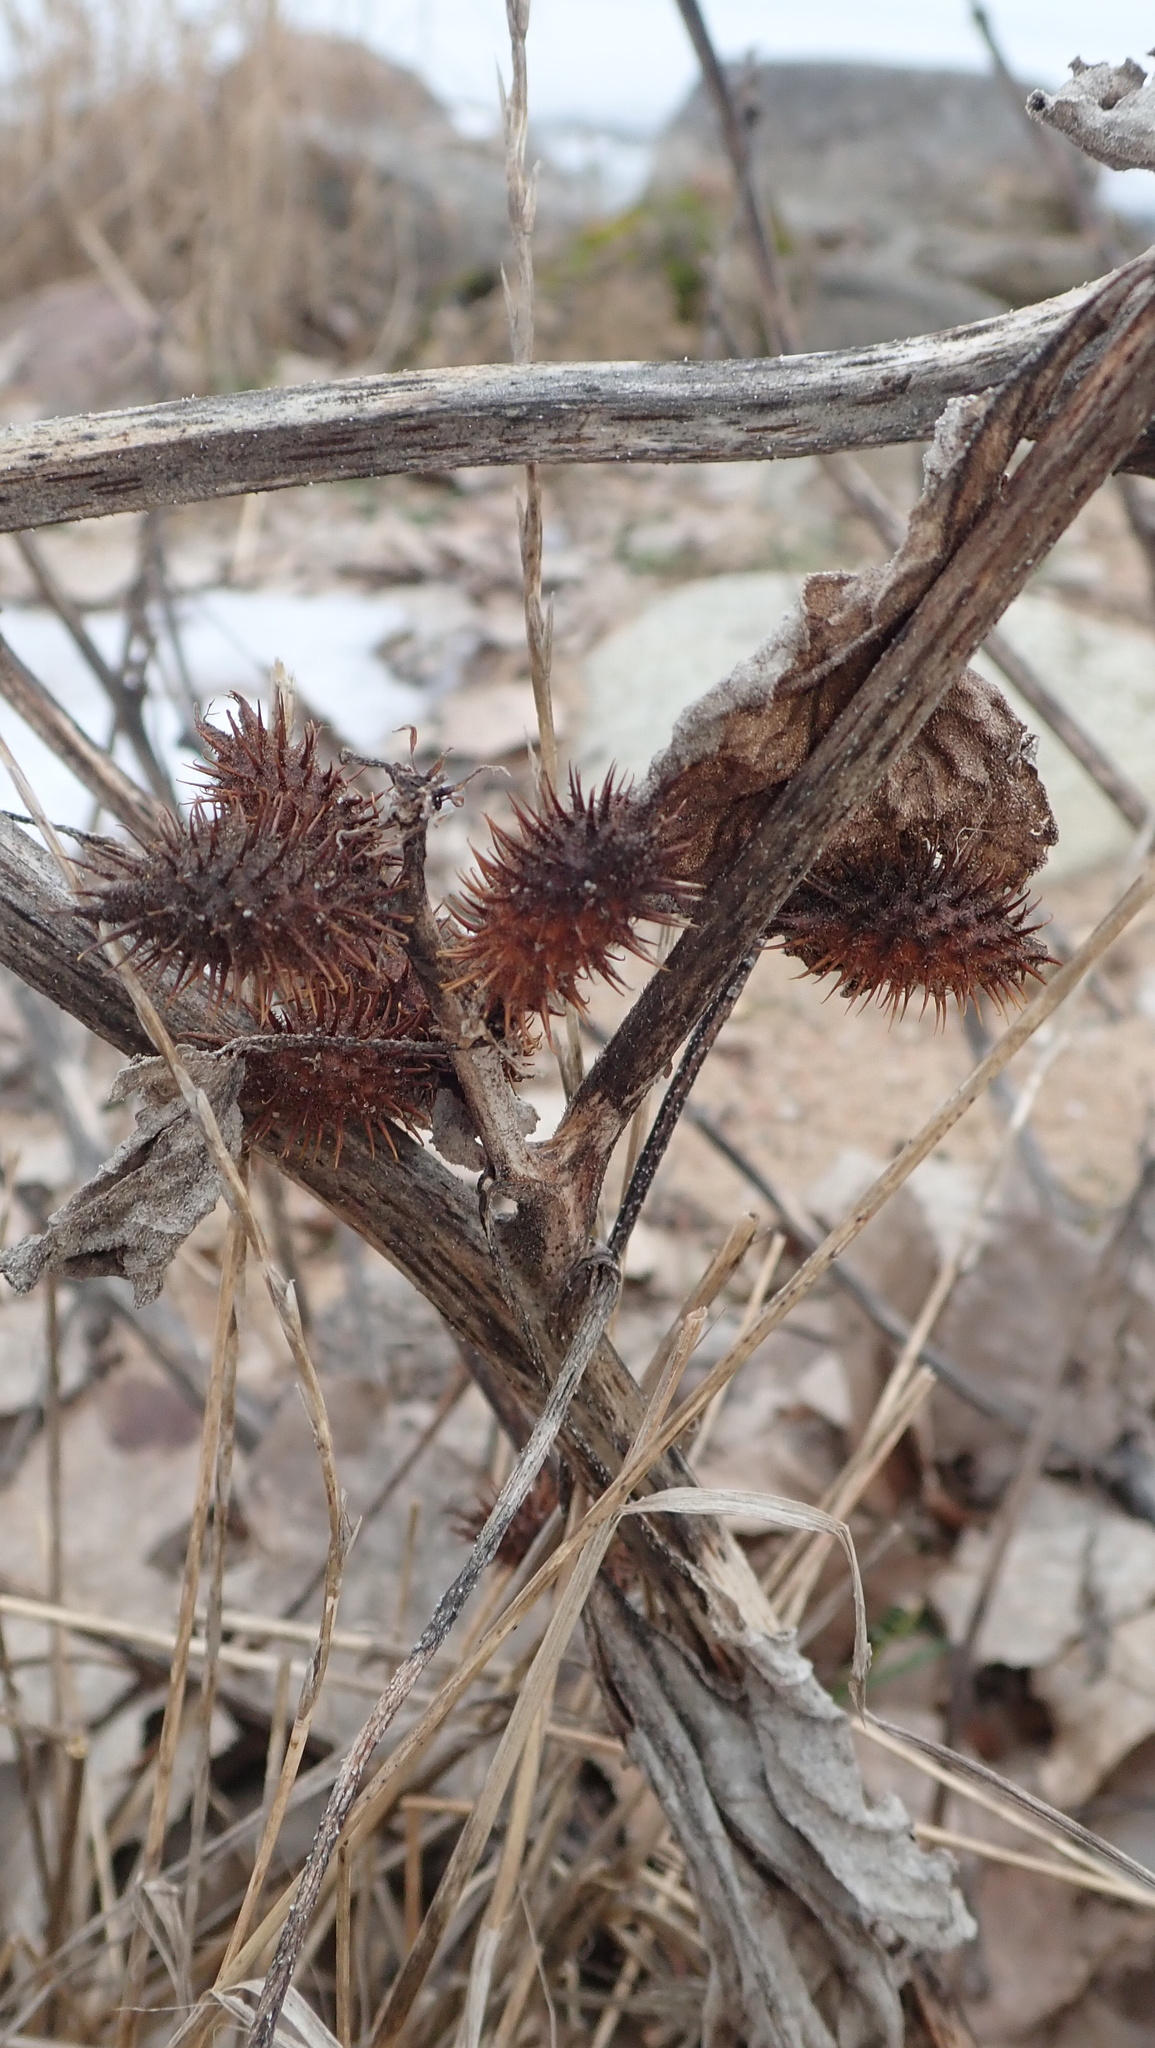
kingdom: Plantae
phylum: Tracheophyta
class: Magnoliopsida
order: Asterales
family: Asteraceae
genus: Xanthium
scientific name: Xanthium orientale
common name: Californian burr
